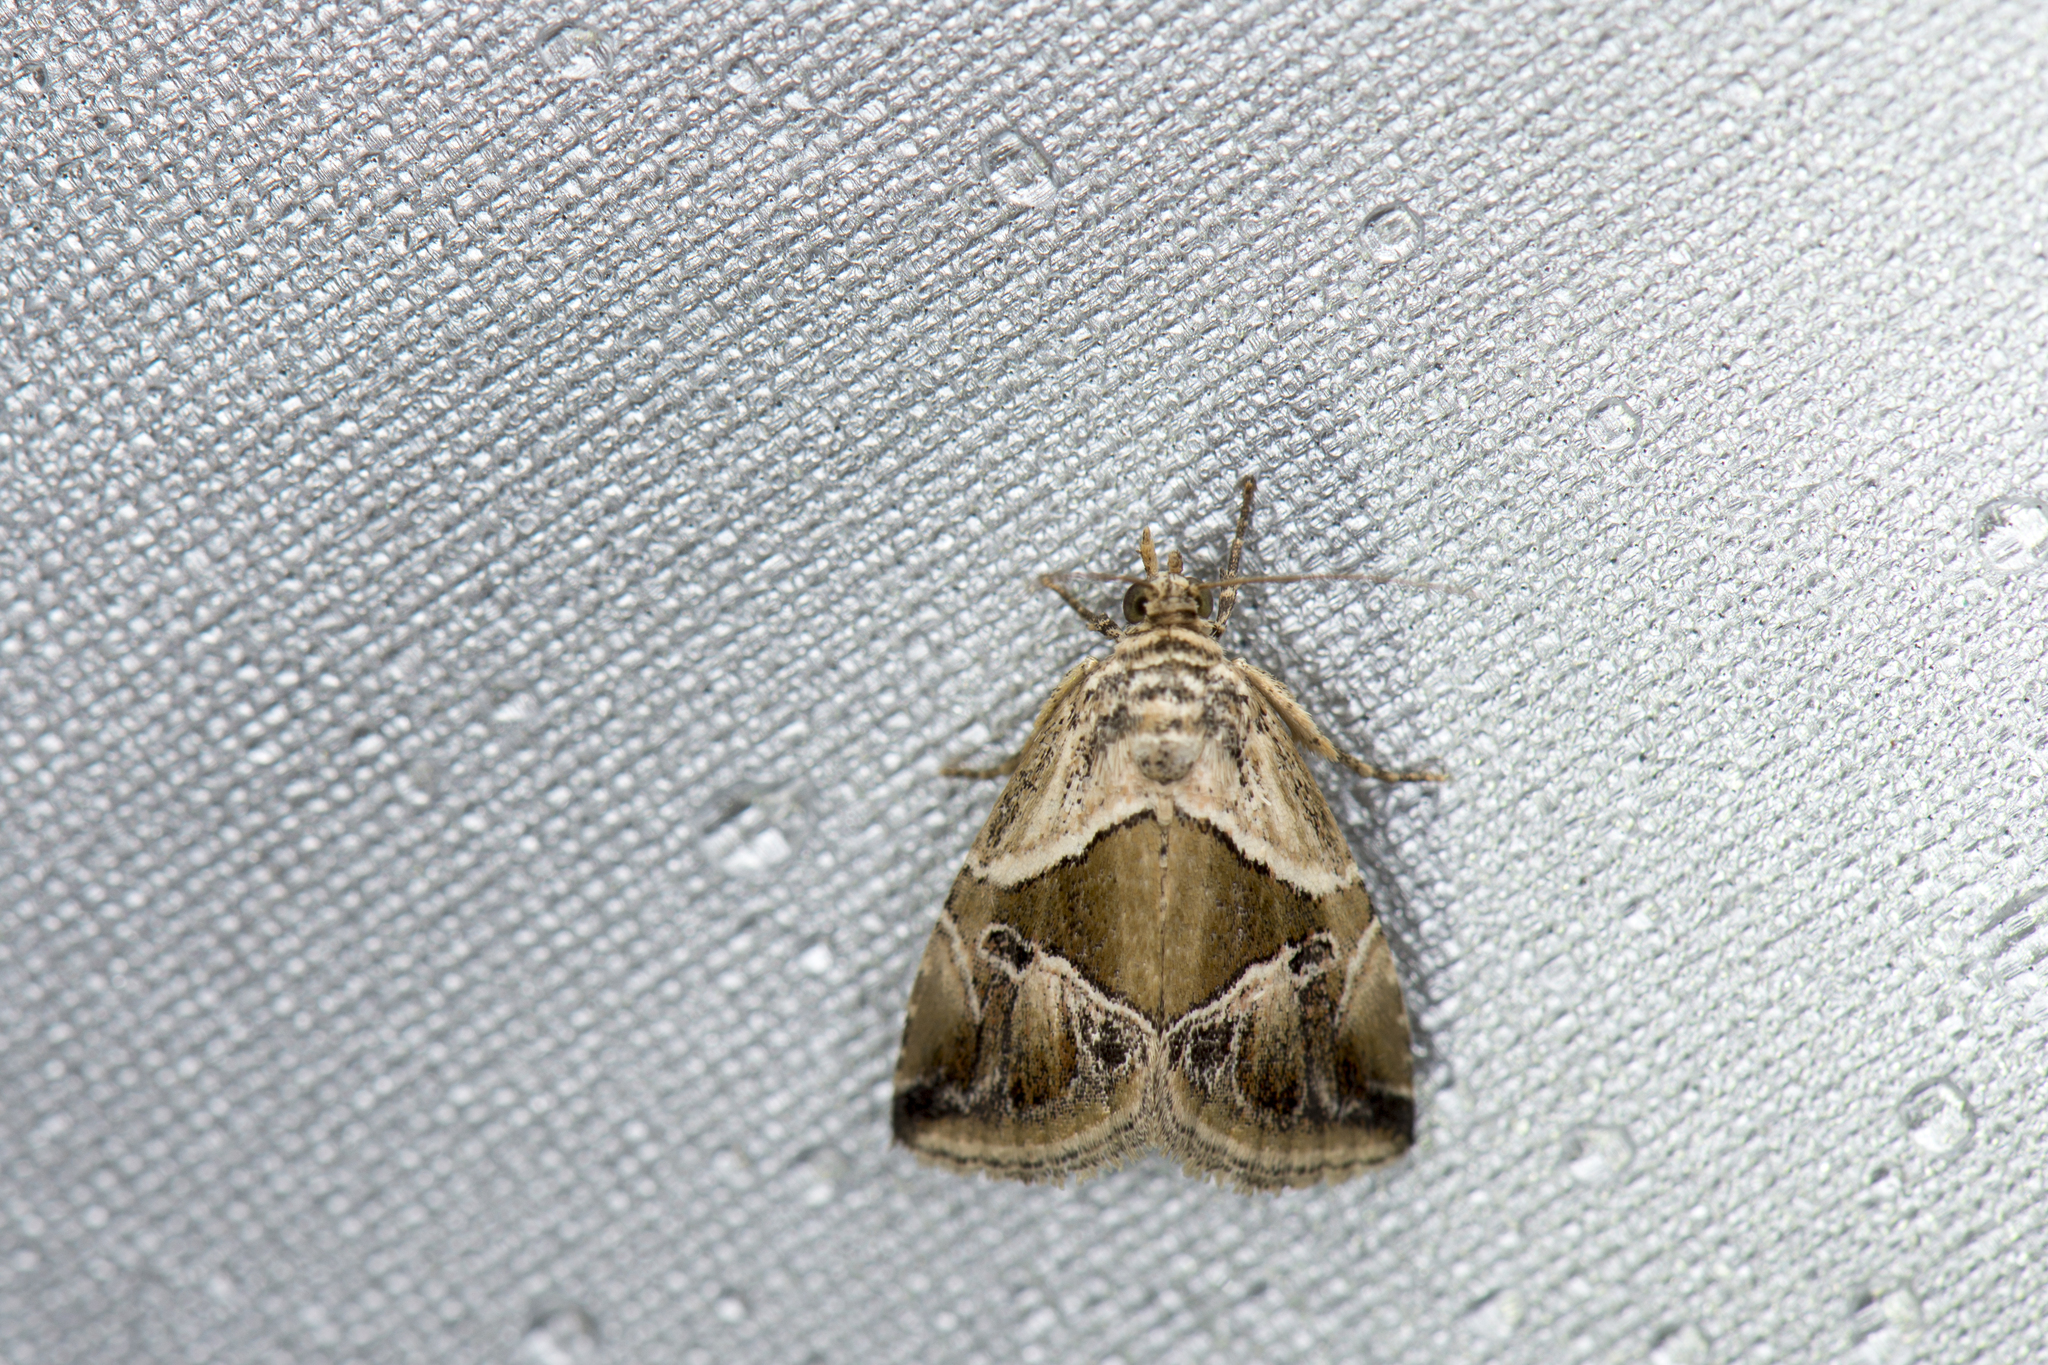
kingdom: Animalia
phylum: Arthropoda
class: Insecta
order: Lepidoptera
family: Noctuidae
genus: Maliattha
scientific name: Maliattha separata
